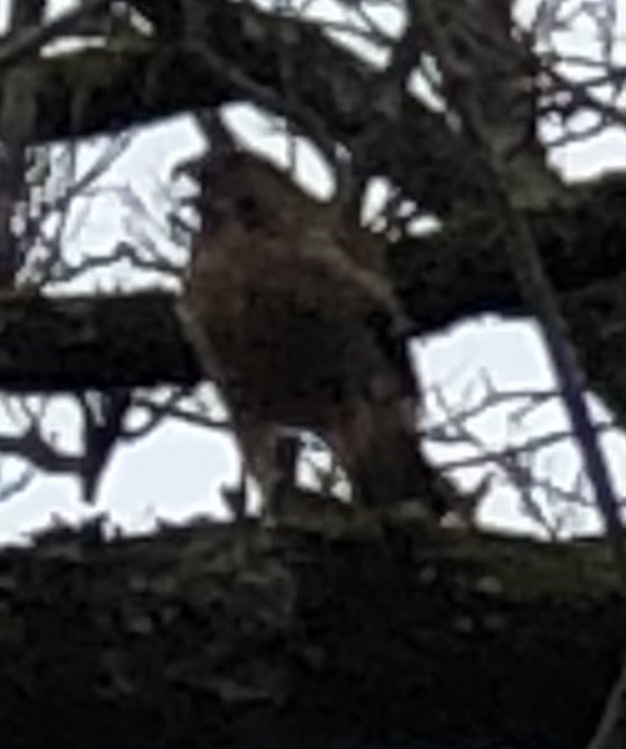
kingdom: Animalia
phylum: Chordata
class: Aves
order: Accipitriformes
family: Accipitridae
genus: Buteo
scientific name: Buteo lineatus
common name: Red-shouldered hawk
